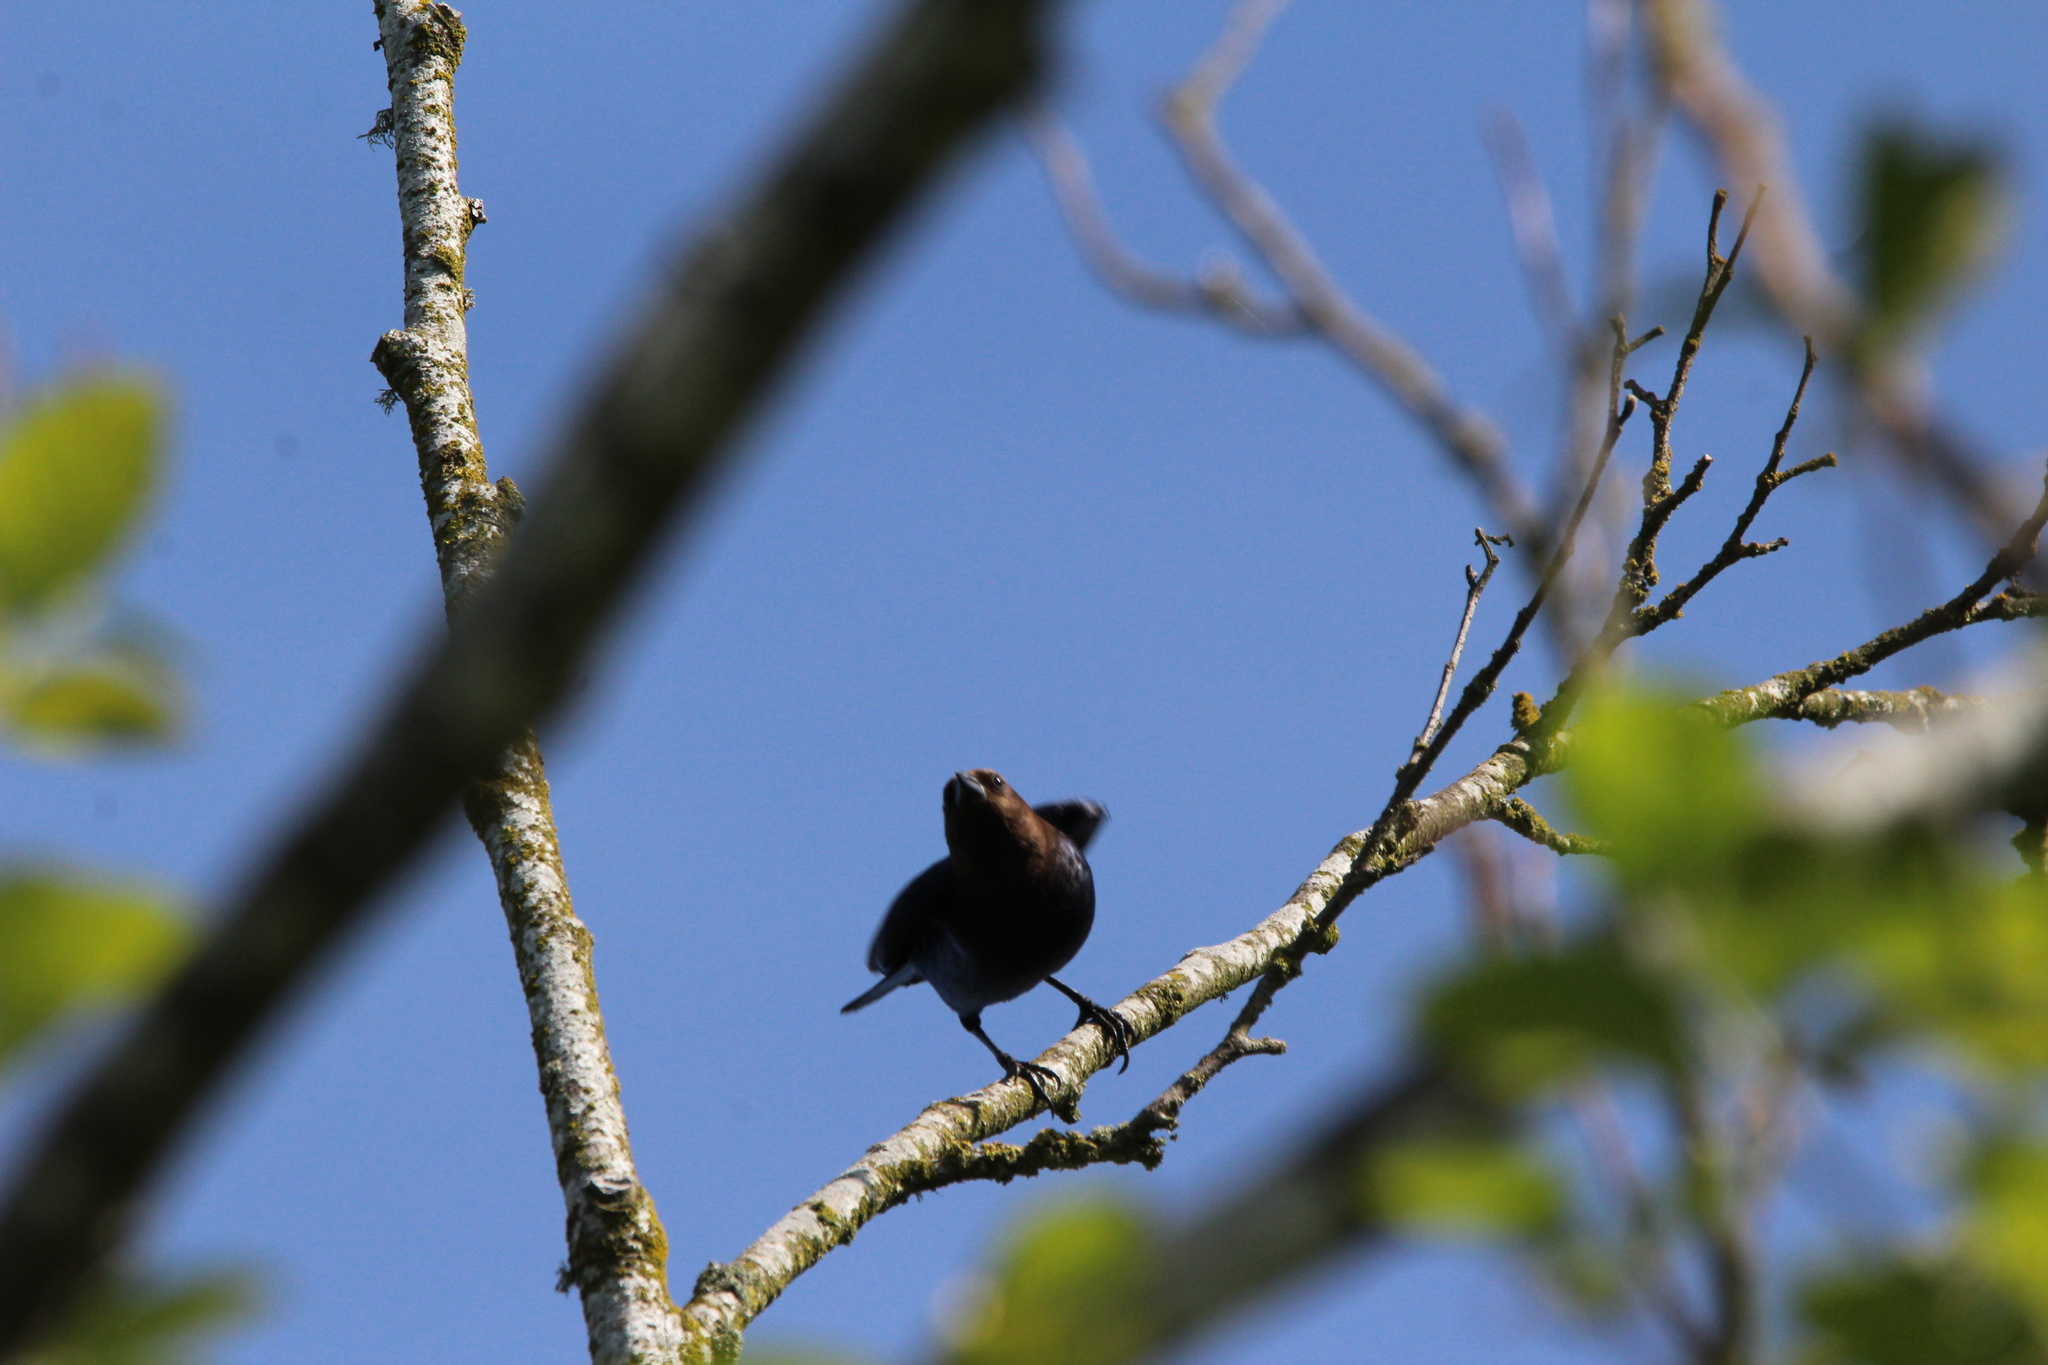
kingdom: Animalia
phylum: Chordata
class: Aves
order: Passeriformes
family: Icteridae
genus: Molothrus
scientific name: Molothrus ater
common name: Brown-headed cowbird
